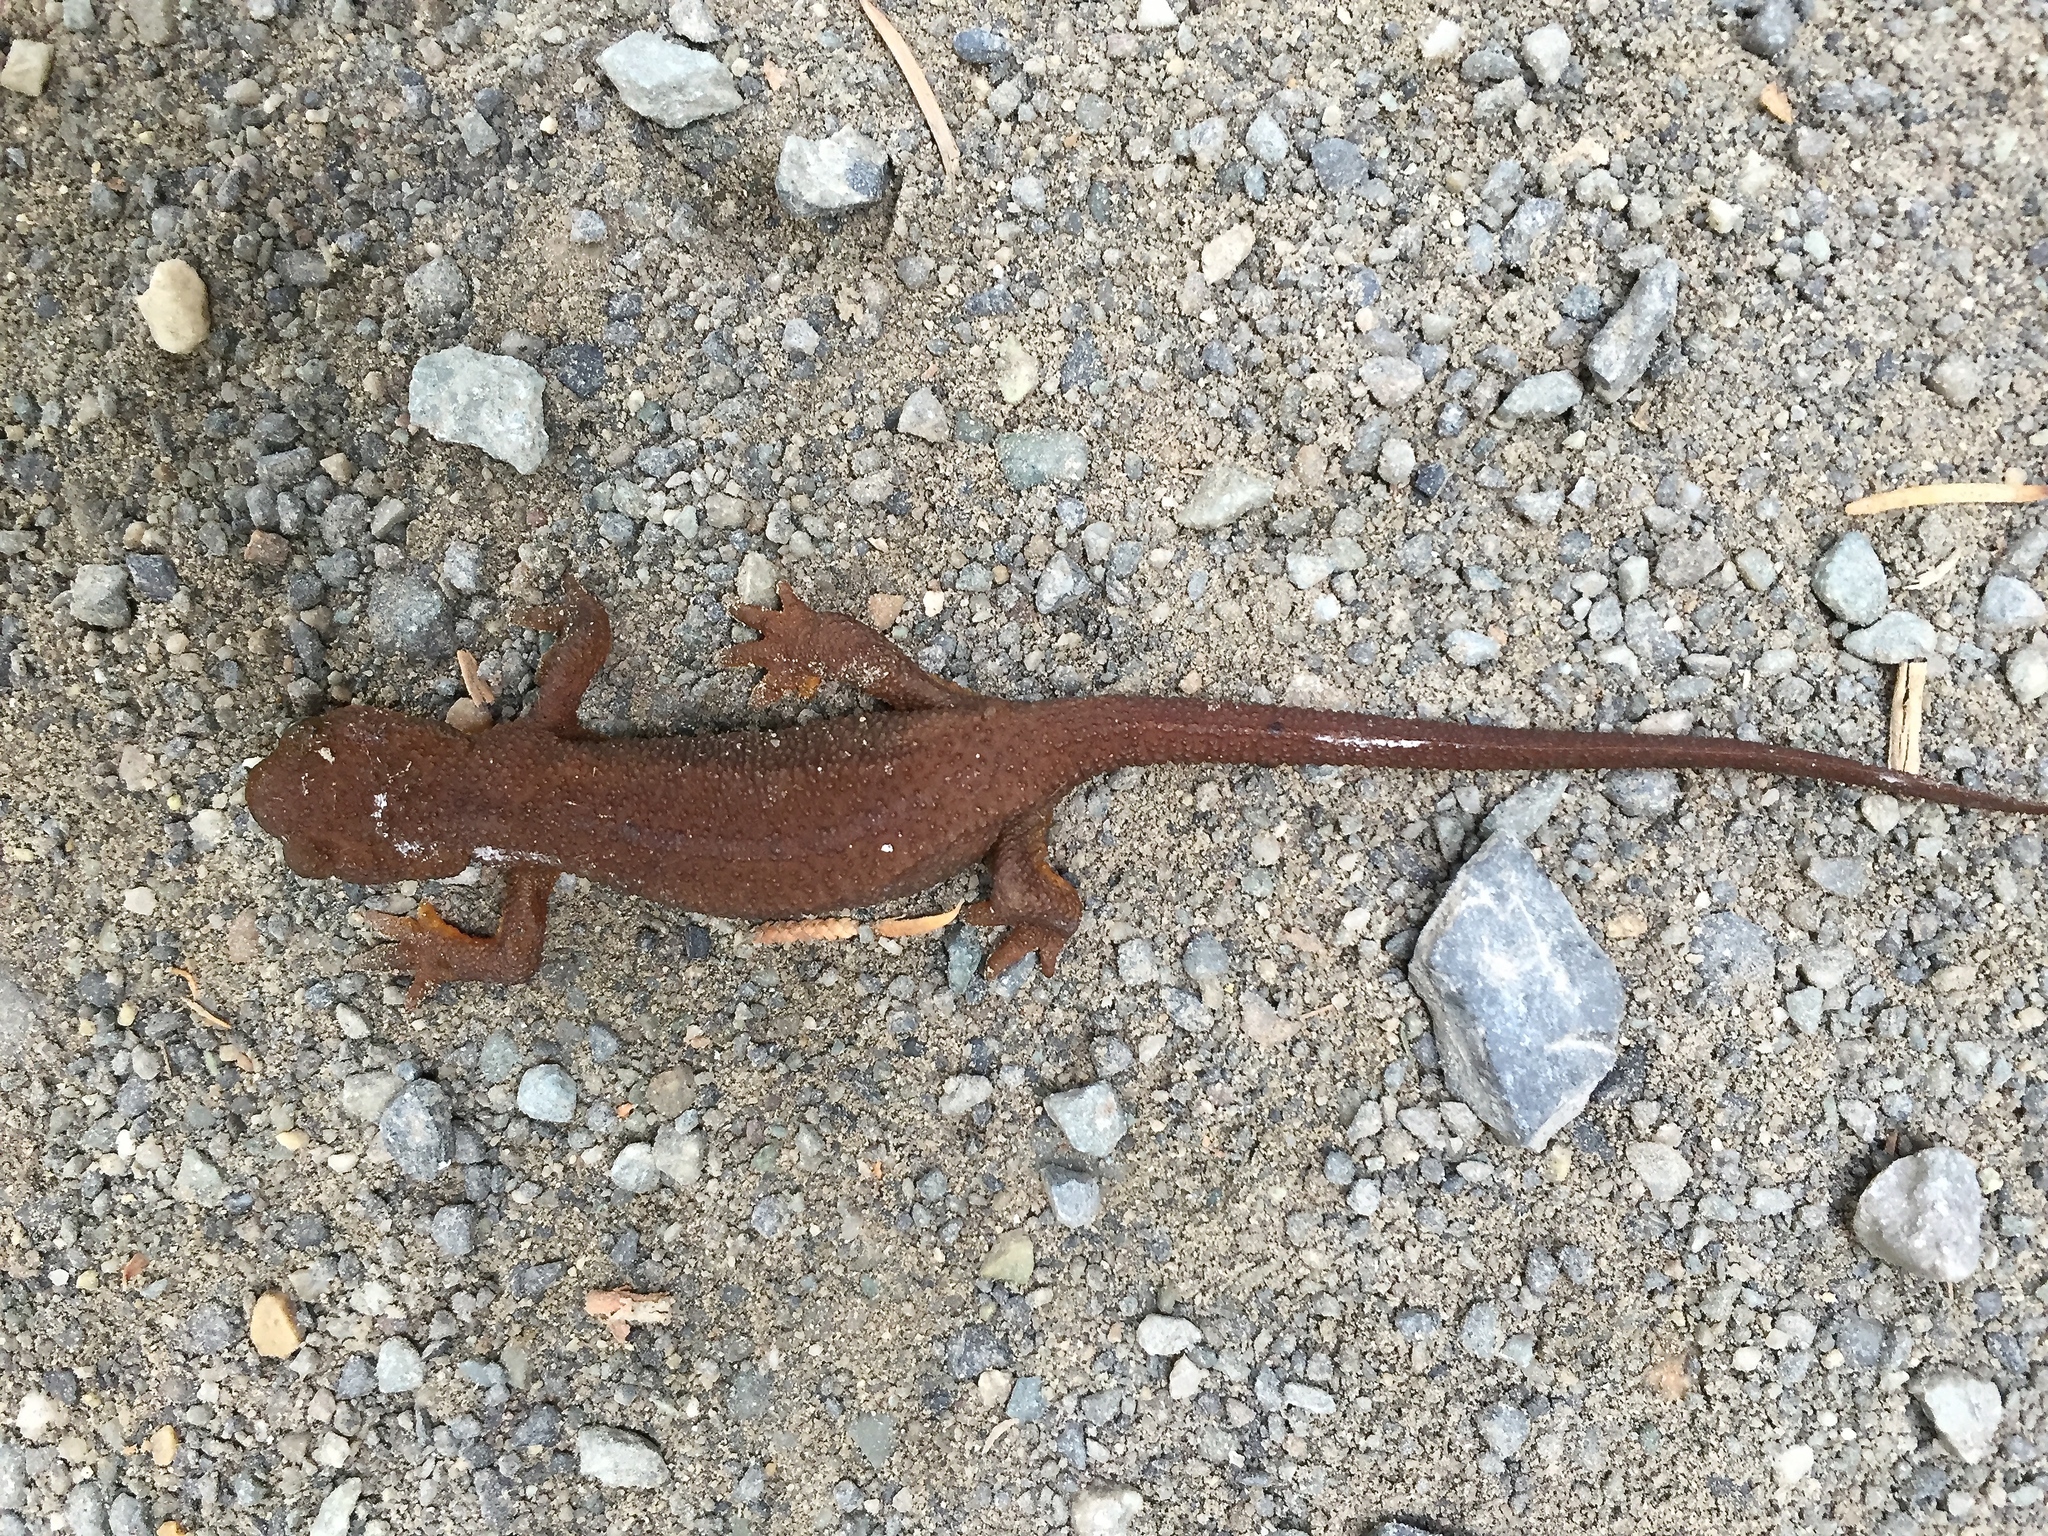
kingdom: Animalia
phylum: Chordata
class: Amphibia
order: Caudata
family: Salamandridae
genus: Taricha
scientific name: Taricha granulosa
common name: Roughskin newt
